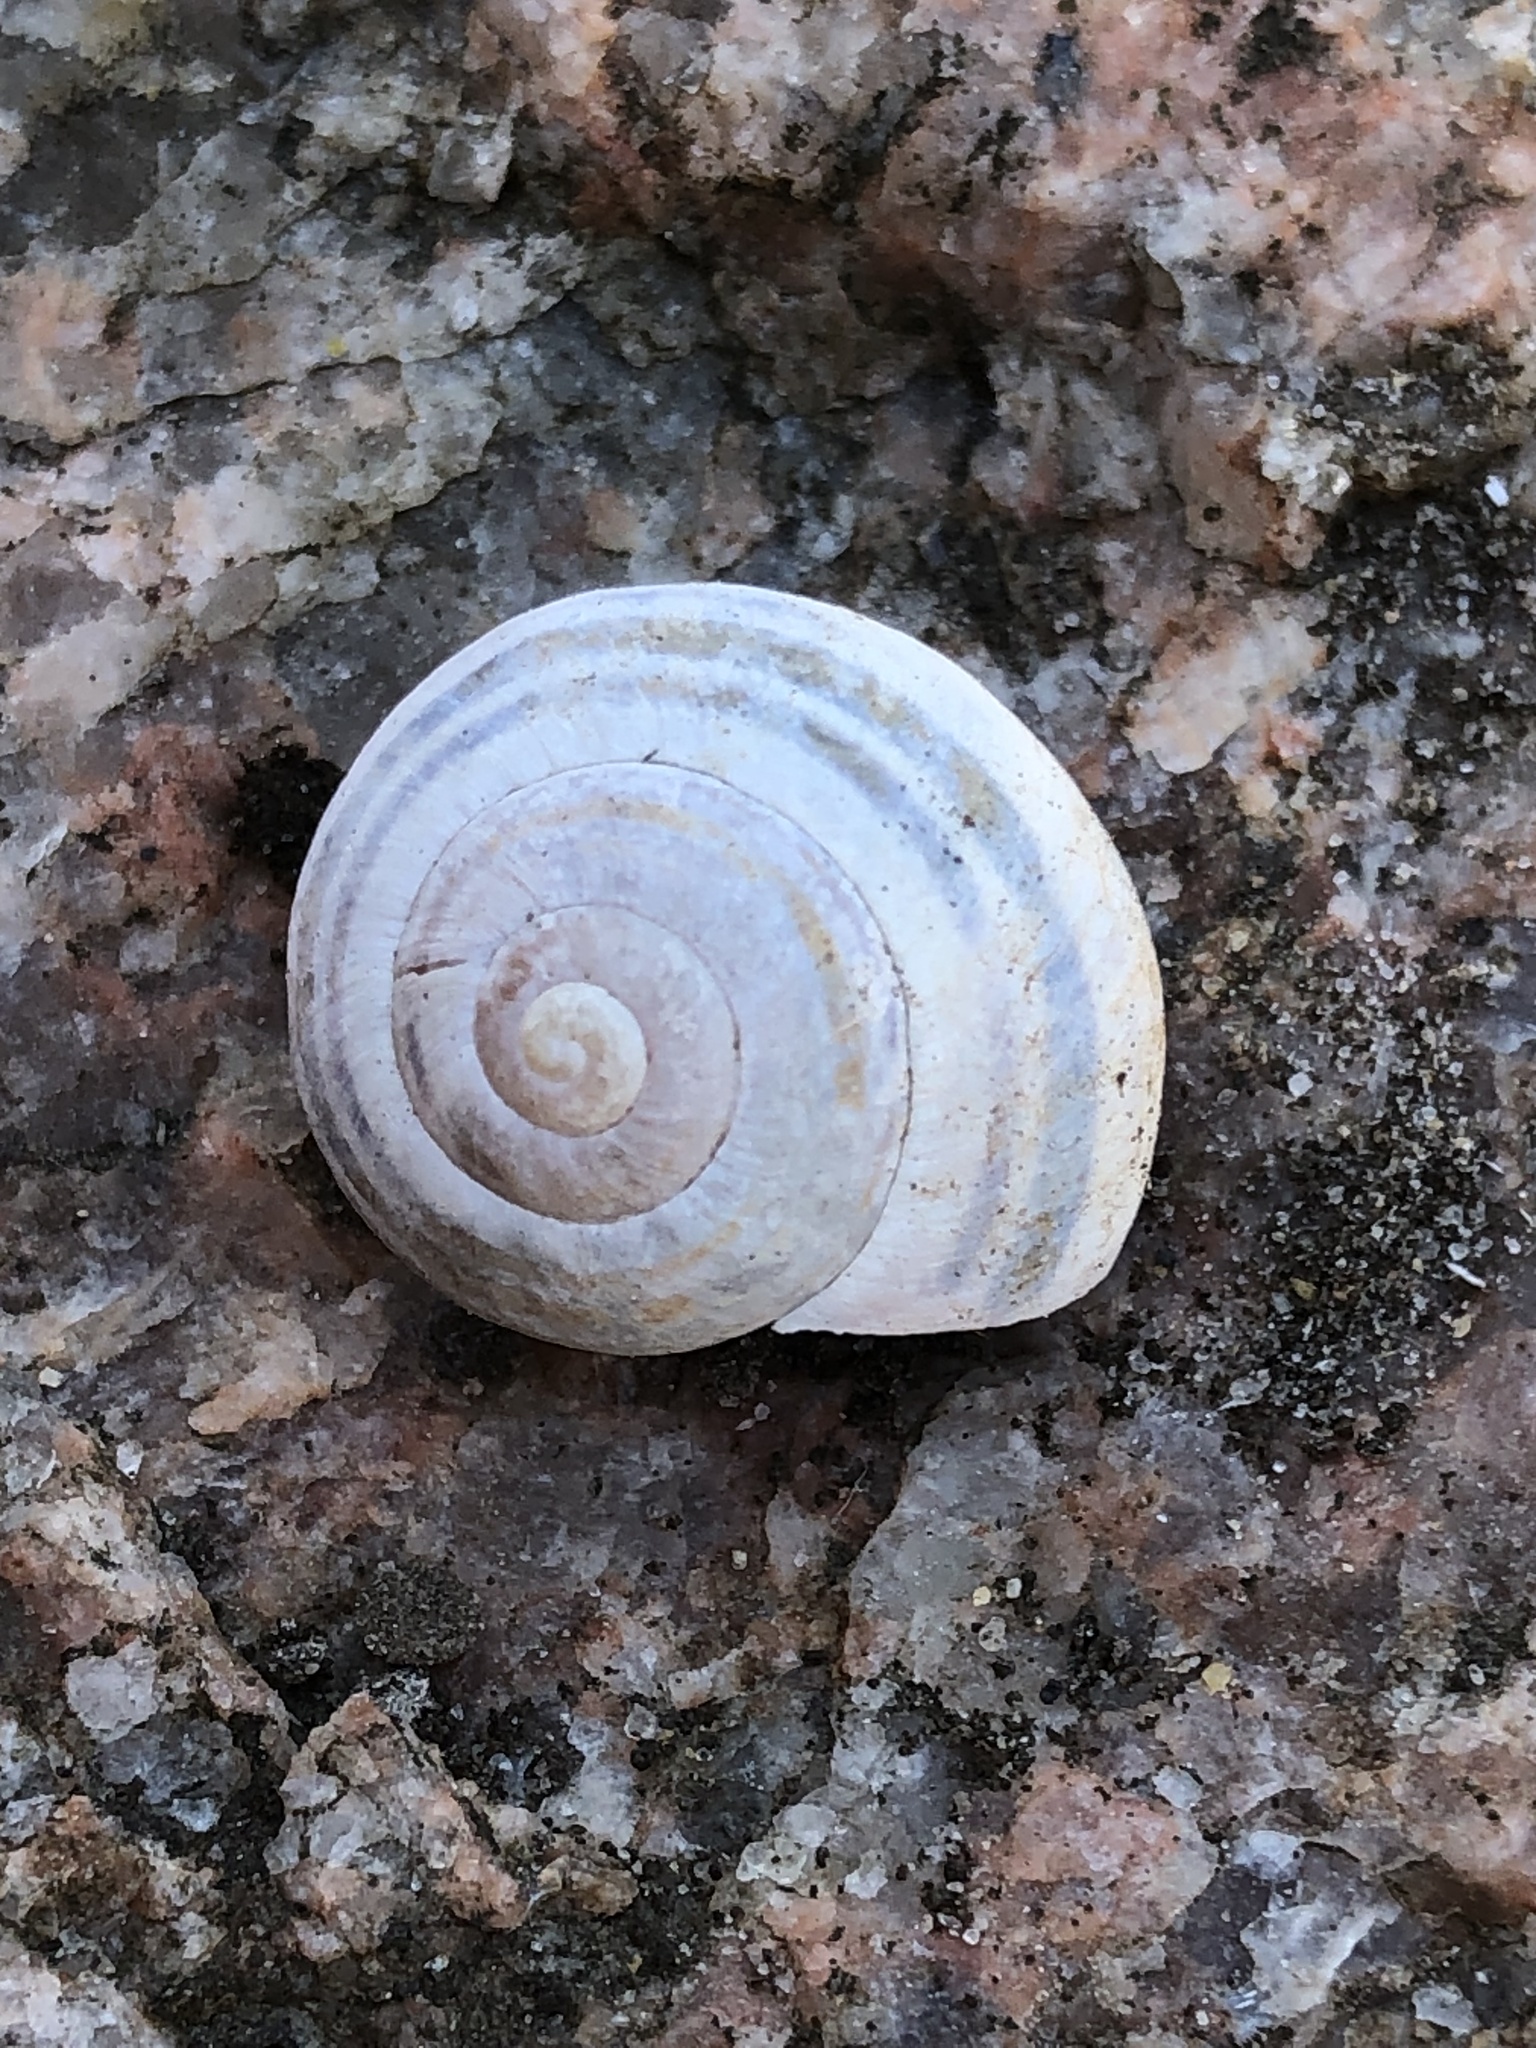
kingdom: Animalia
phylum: Mollusca
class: Gastropoda
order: Stylommatophora
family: Helicidae
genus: Cepaea
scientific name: Cepaea nemoralis
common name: Grovesnail
